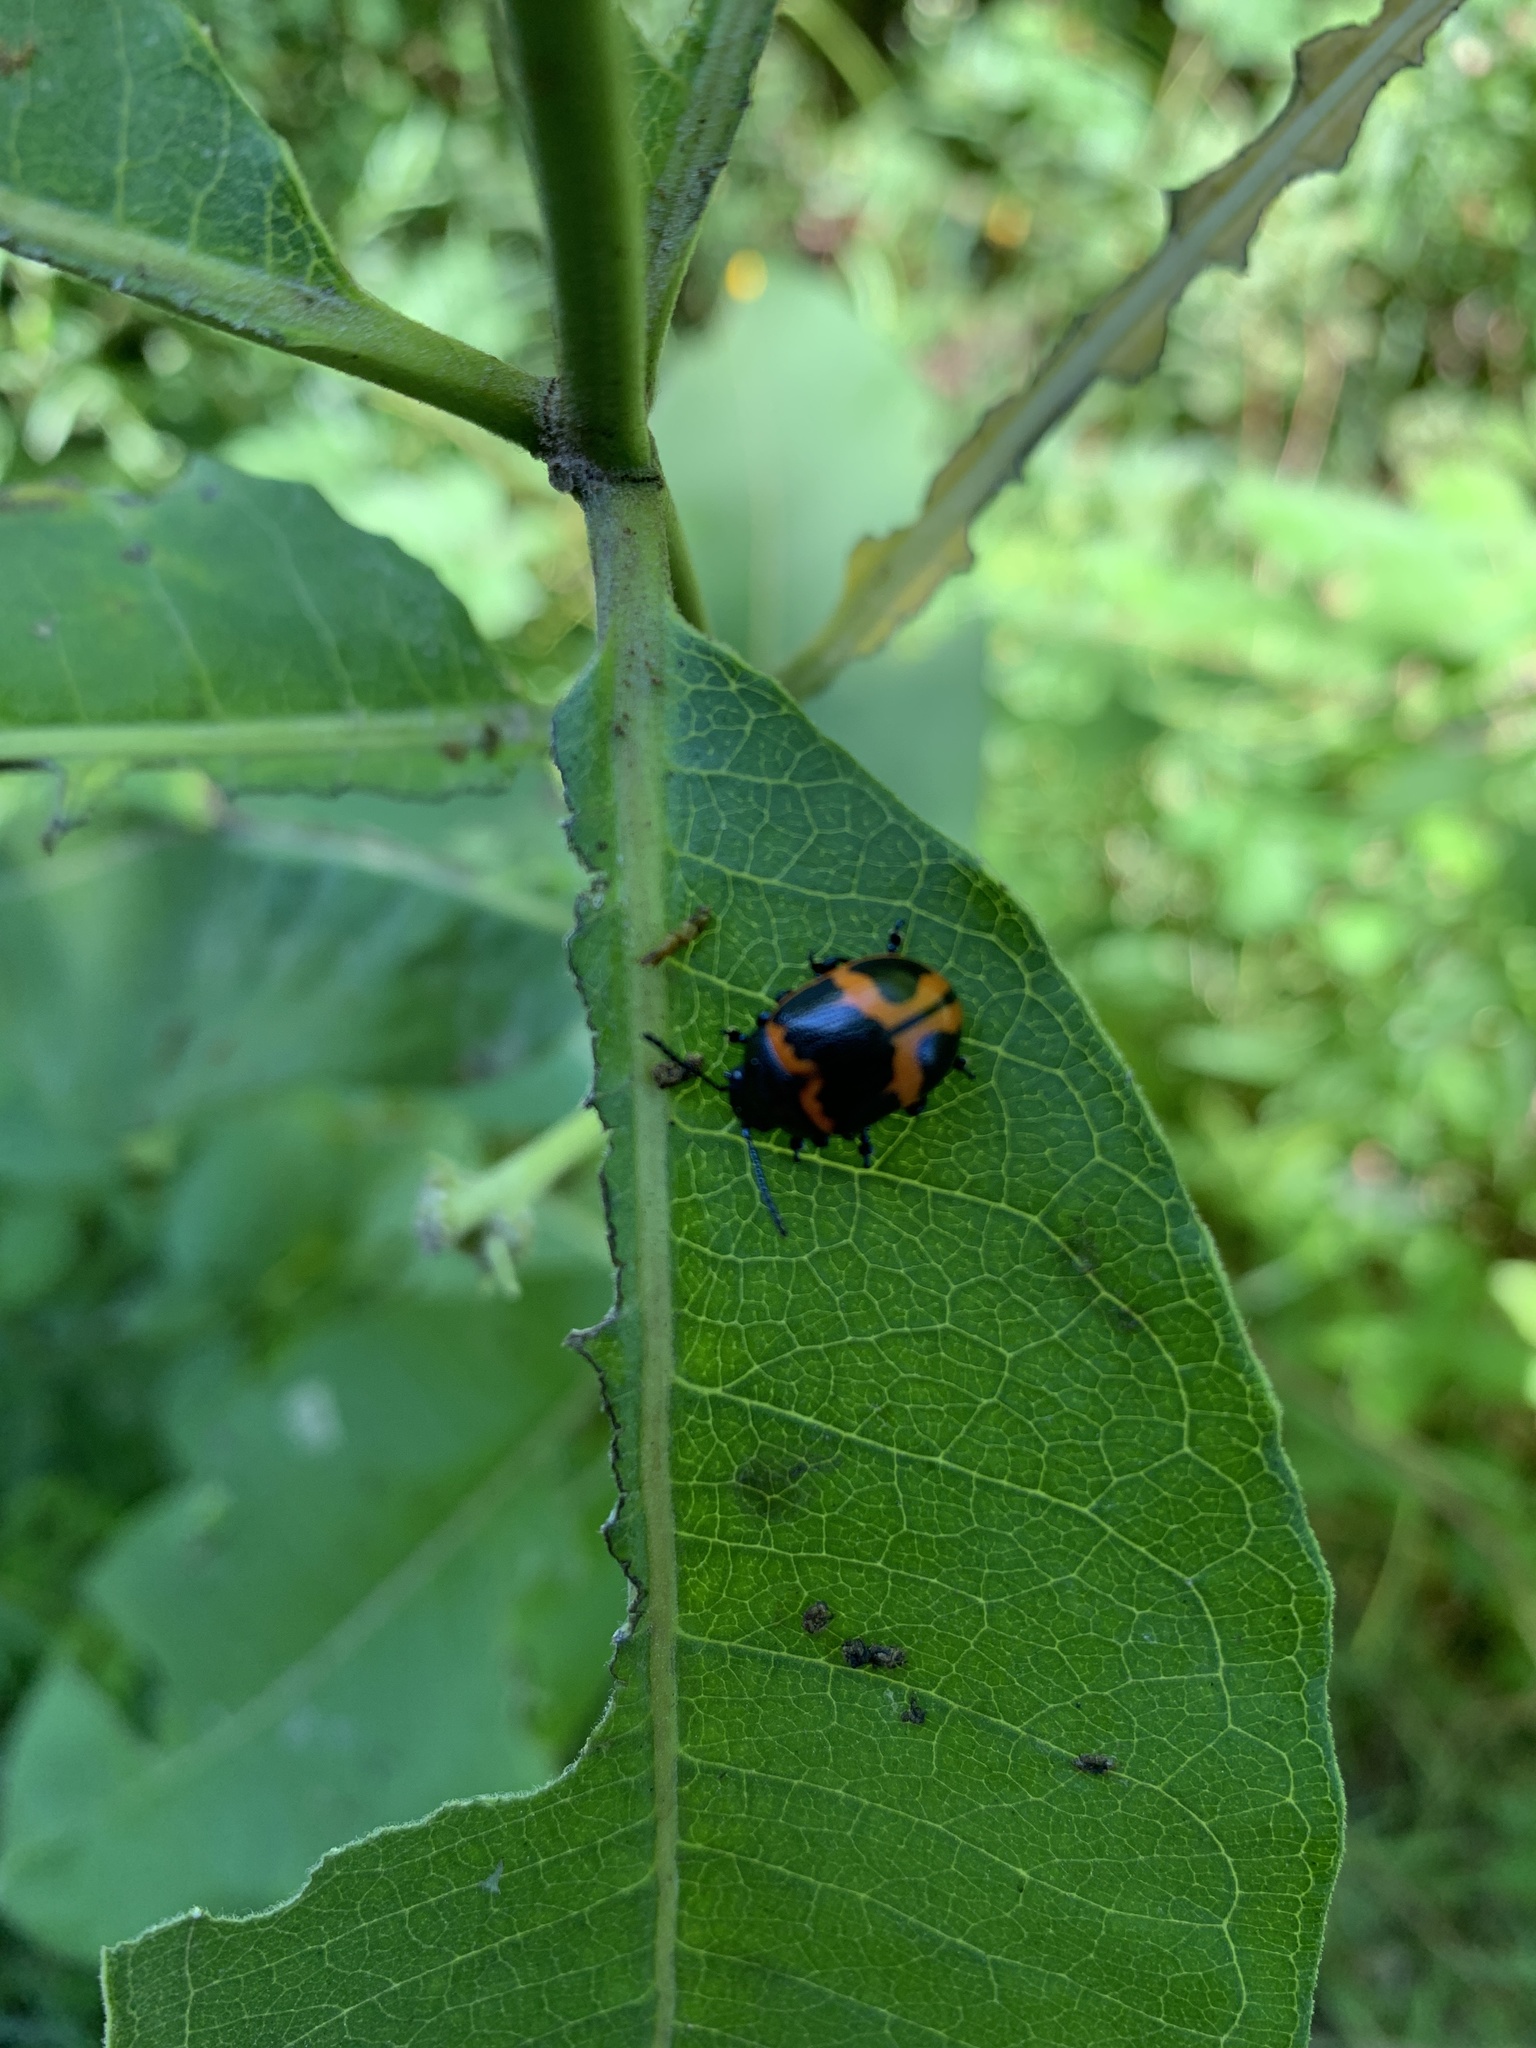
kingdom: Animalia
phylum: Arthropoda
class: Insecta
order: Coleoptera
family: Chrysomelidae
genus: Labidomera
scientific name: Labidomera clivicollis
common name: Swamp milkweed leaf beetle
